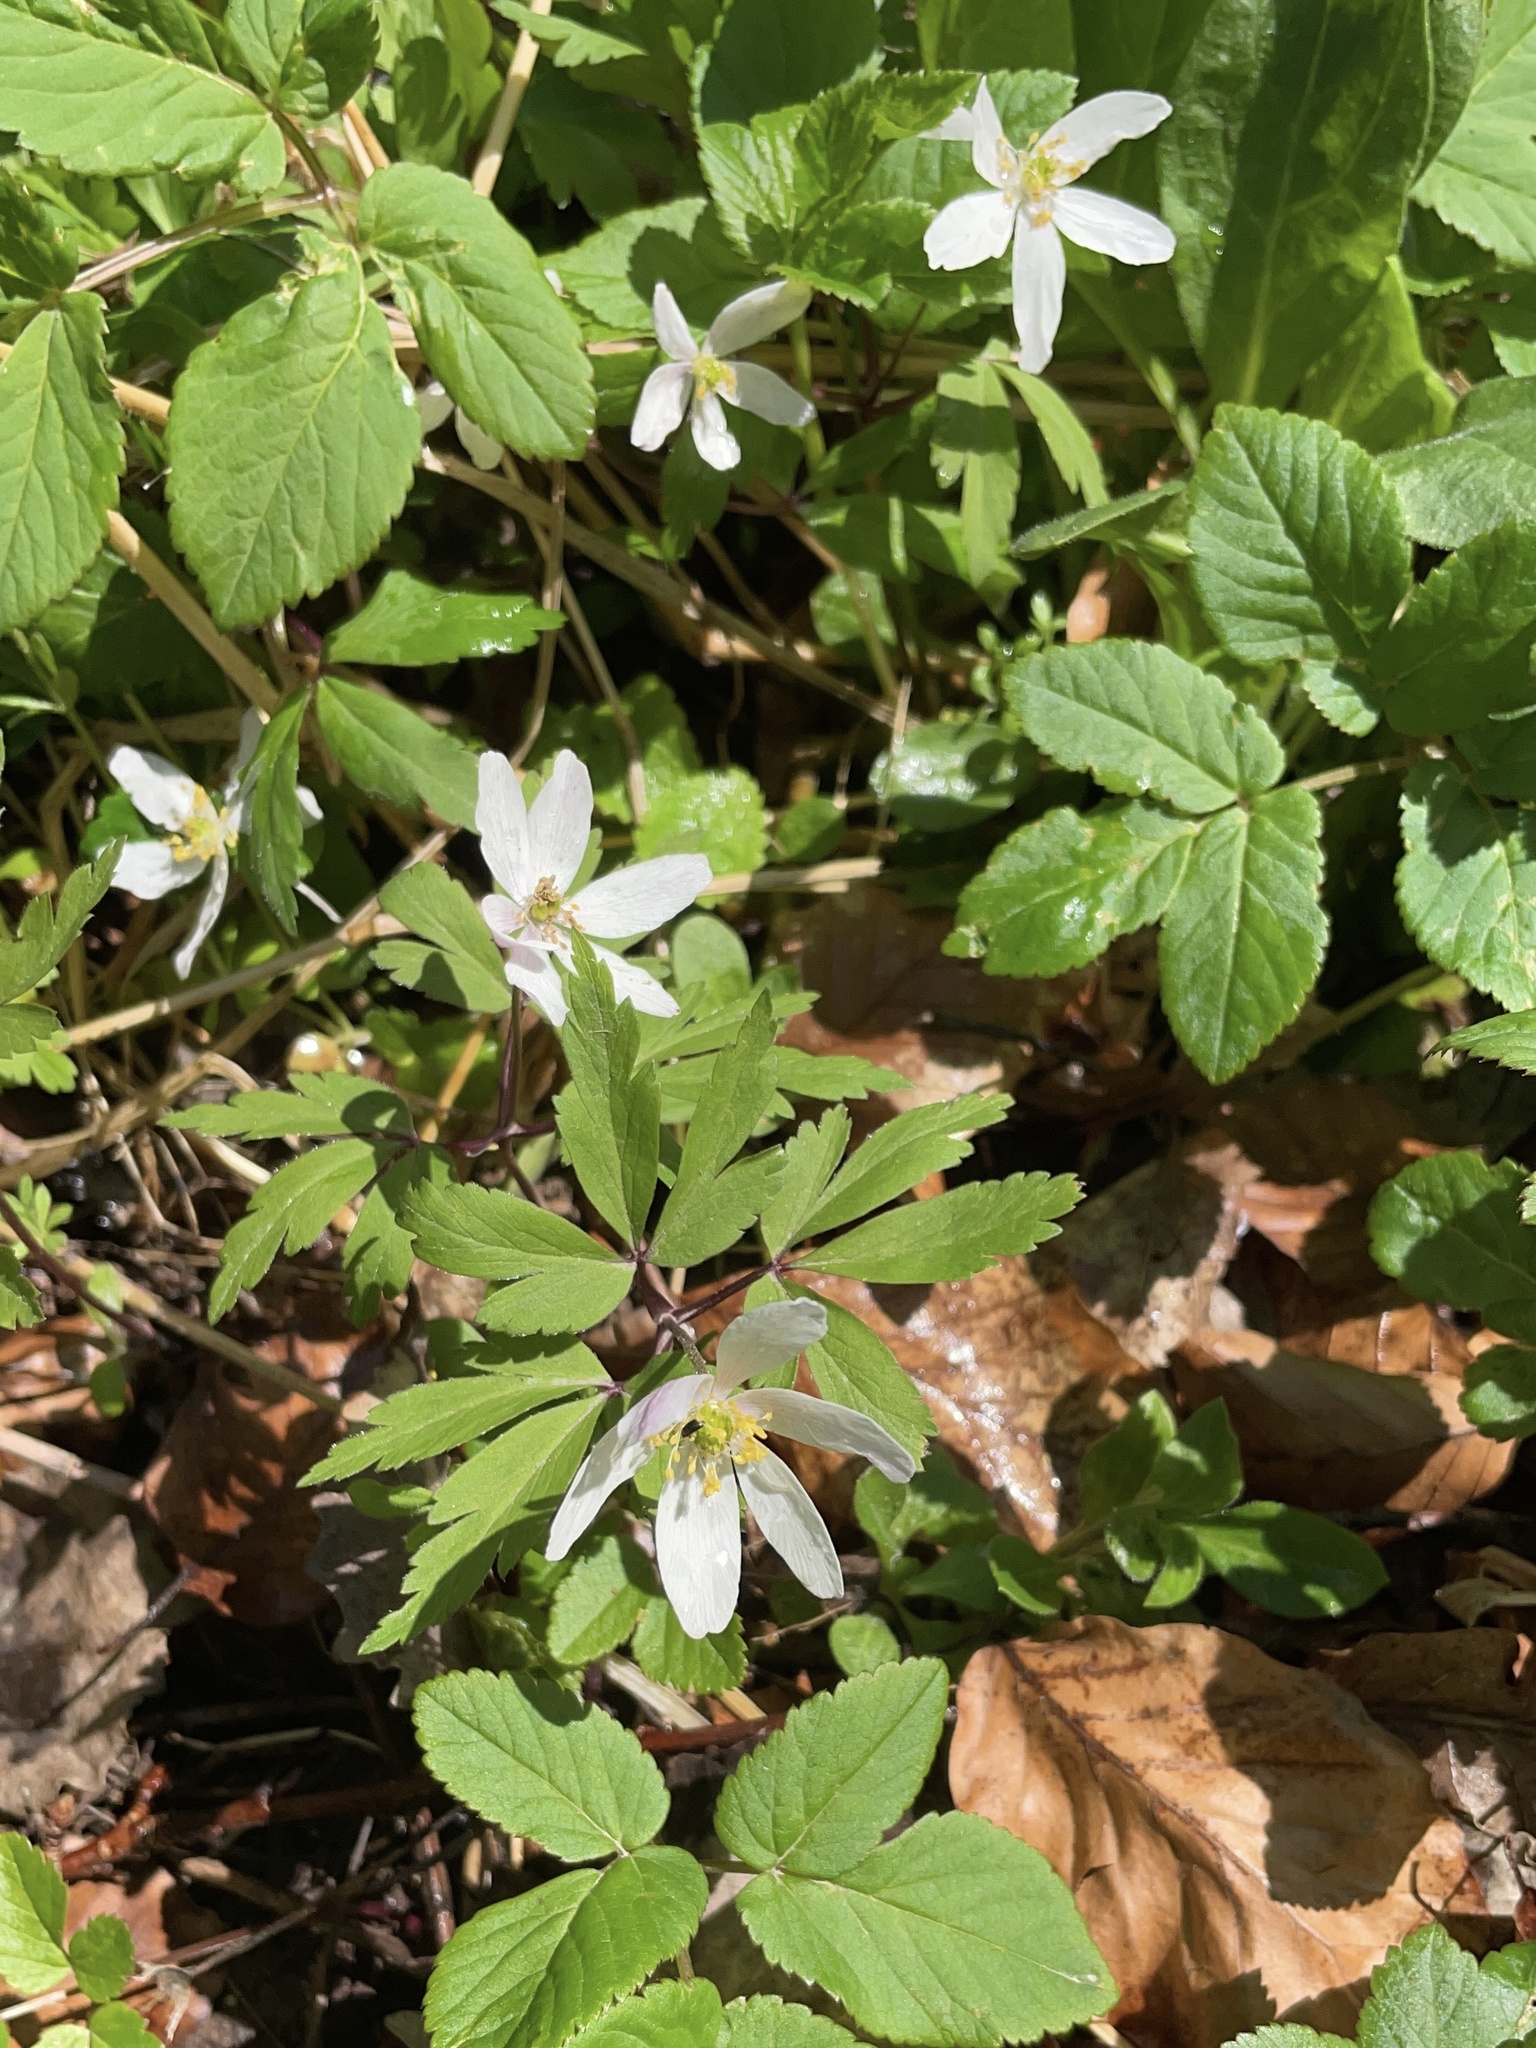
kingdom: Plantae
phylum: Tracheophyta
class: Magnoliopsida
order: Ranunculales
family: Ranunculaceae
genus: Anemone
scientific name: Anemone nemorosa
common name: Wood anemone
